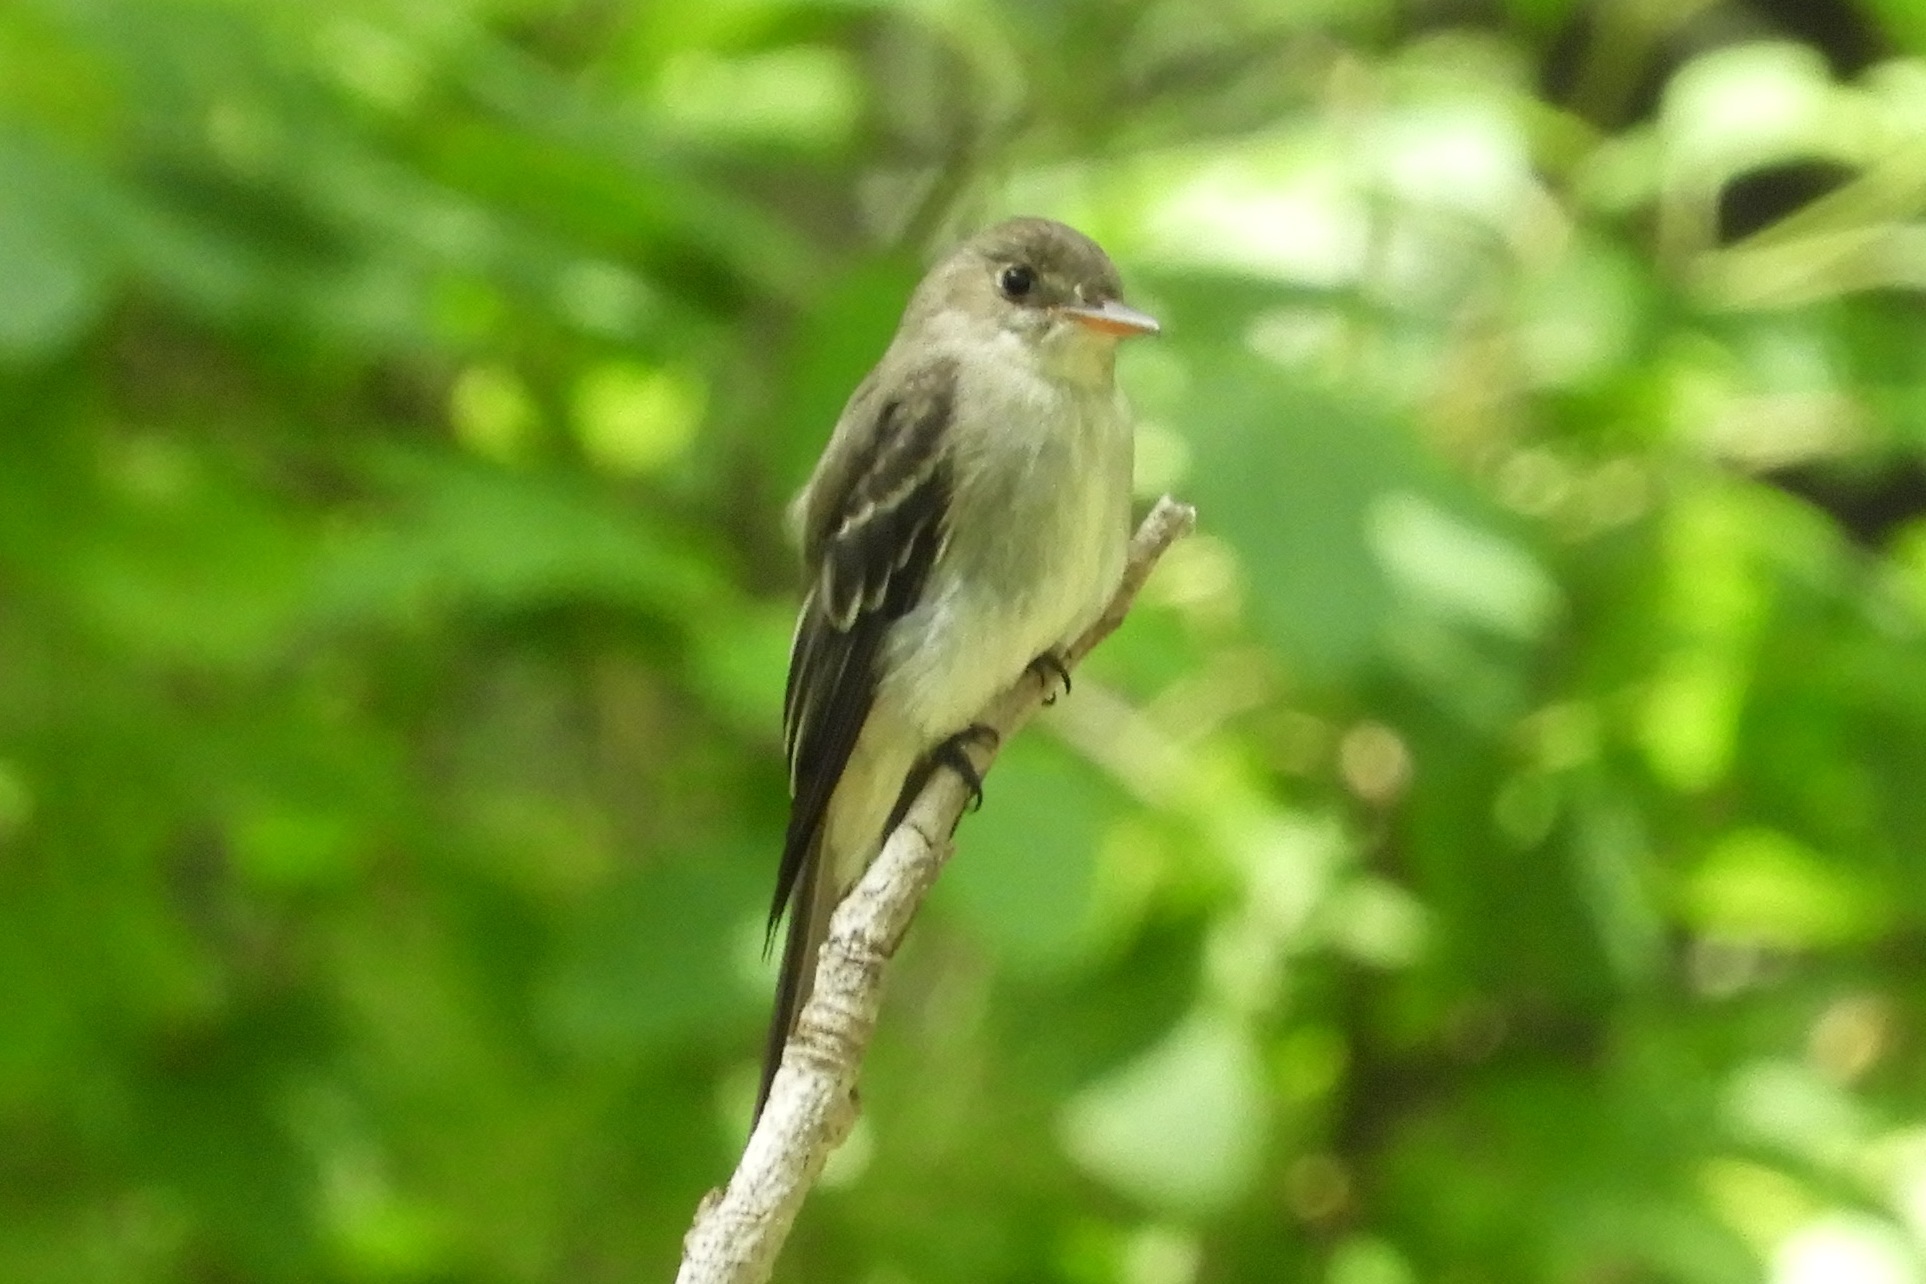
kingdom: Animalia
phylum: Chordata
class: Aves
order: Passeriformes
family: Tyrannidae
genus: Contopus
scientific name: Contopus virens
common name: Eastern wood-pewee
